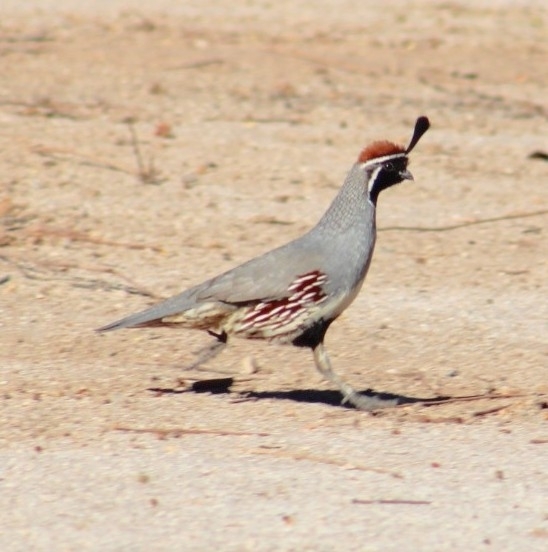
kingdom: Animalia
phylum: Chordata
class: Aves
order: Galliformes
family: Odontophoridae
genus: Callipepla
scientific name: Callipepla gambelii
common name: Gambel's quail
